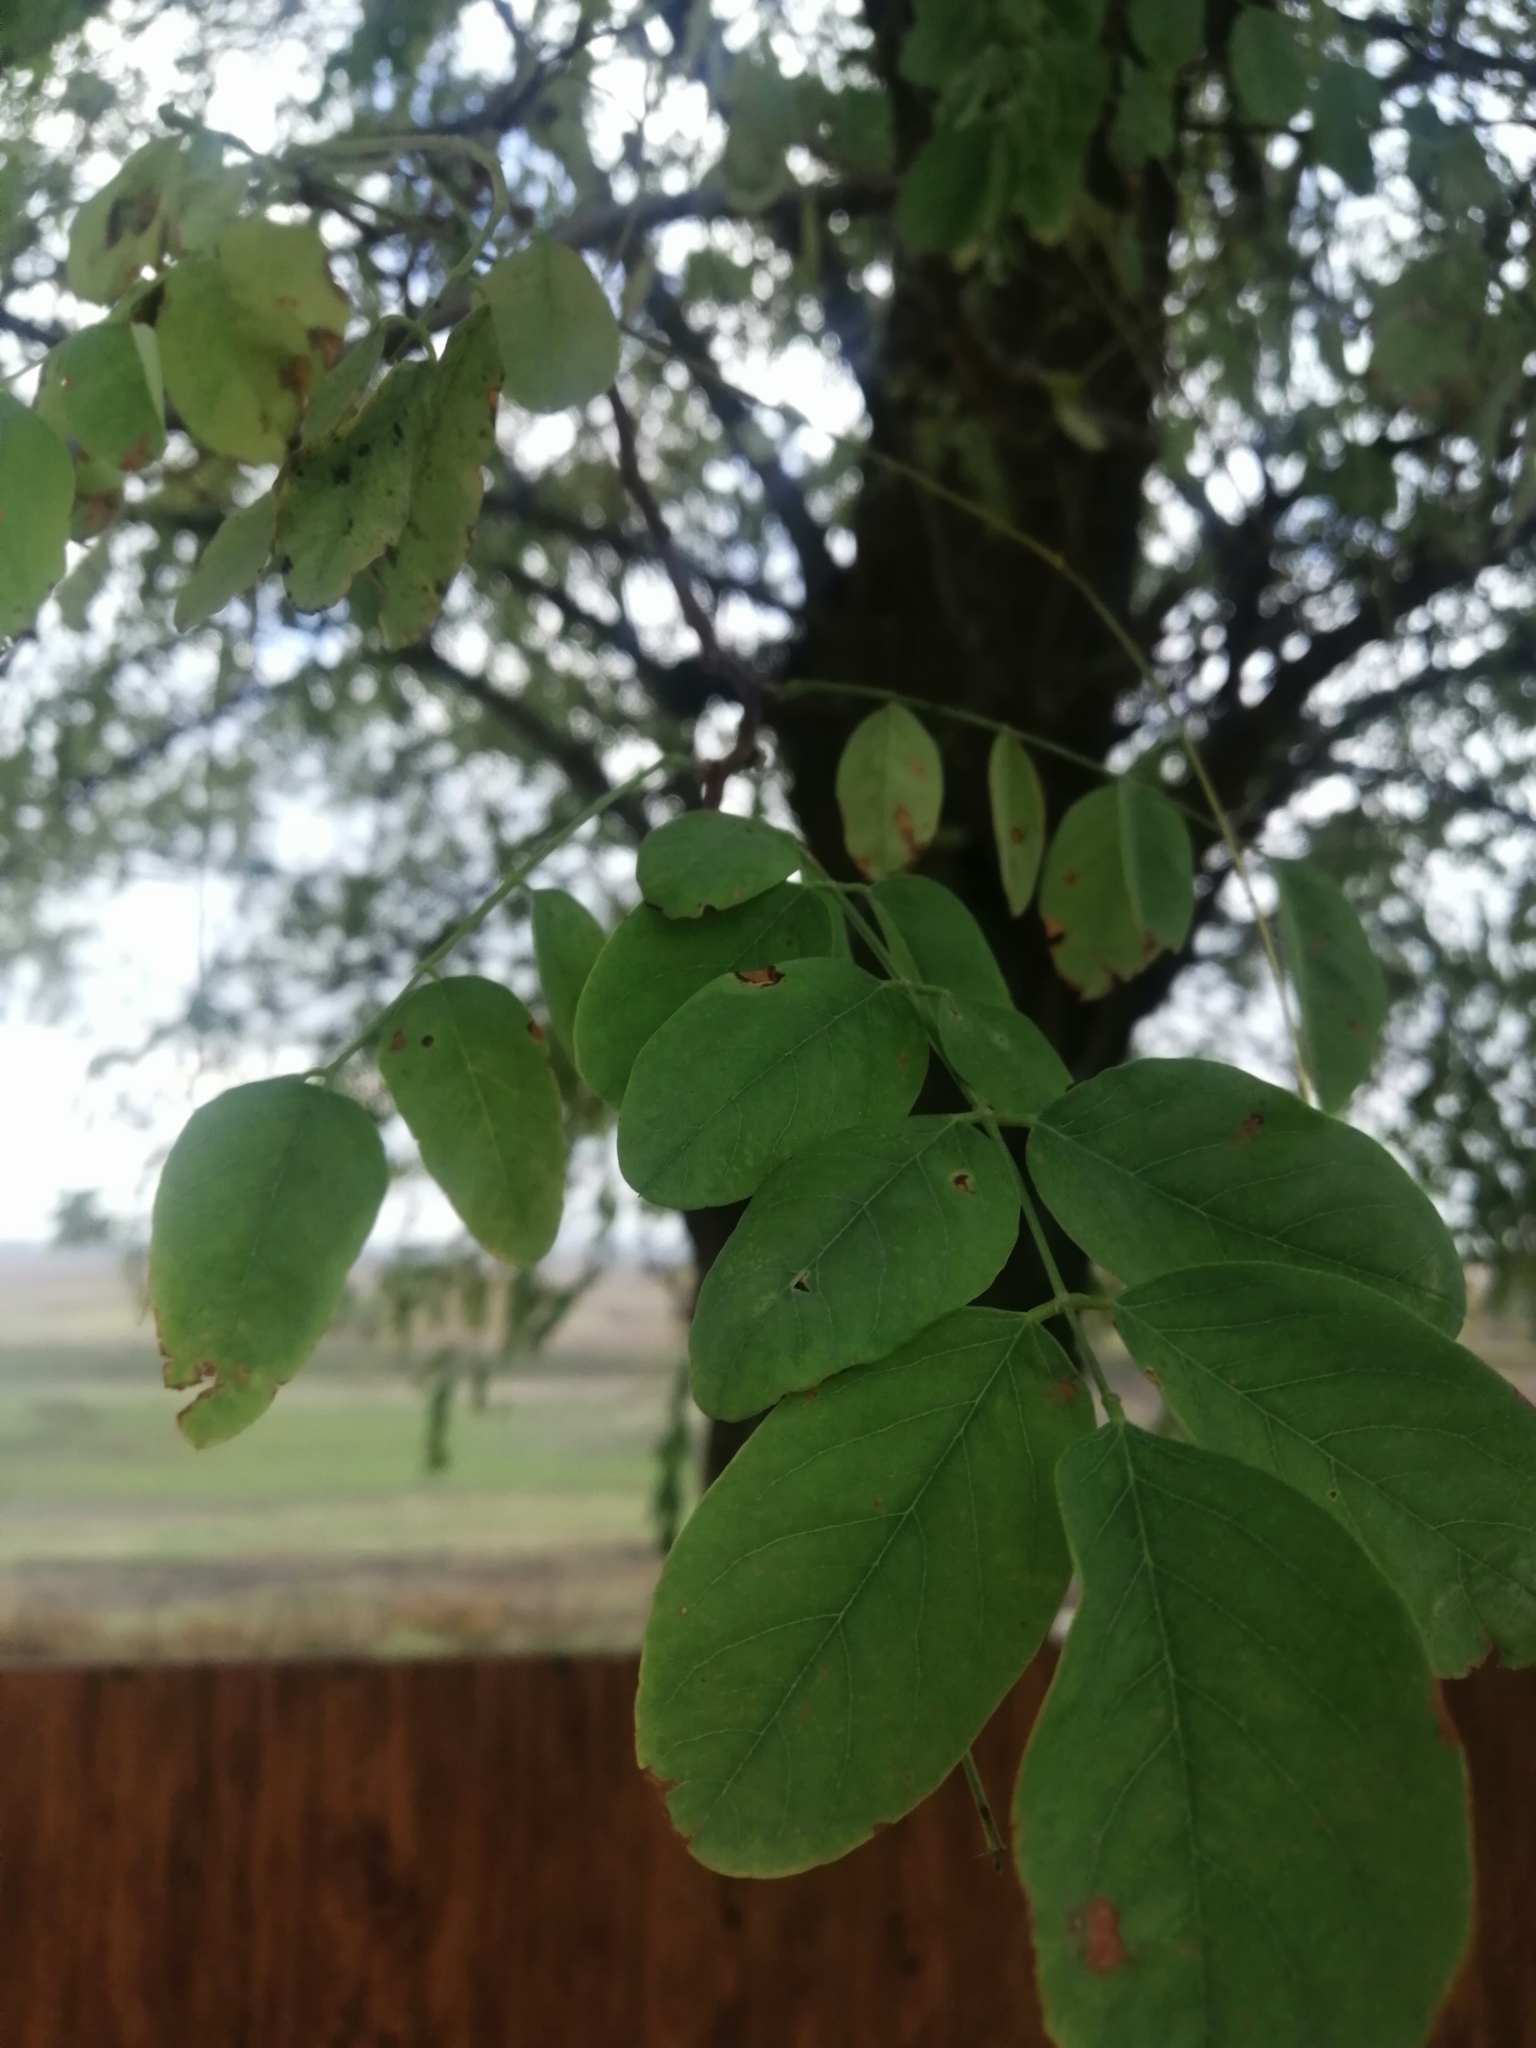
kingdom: Plantae
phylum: Tracheophyta
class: Magnoliopsida
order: Fabales
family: Fabaceae
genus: Robinia
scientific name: Robinia pseudoacacia
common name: Black locust
